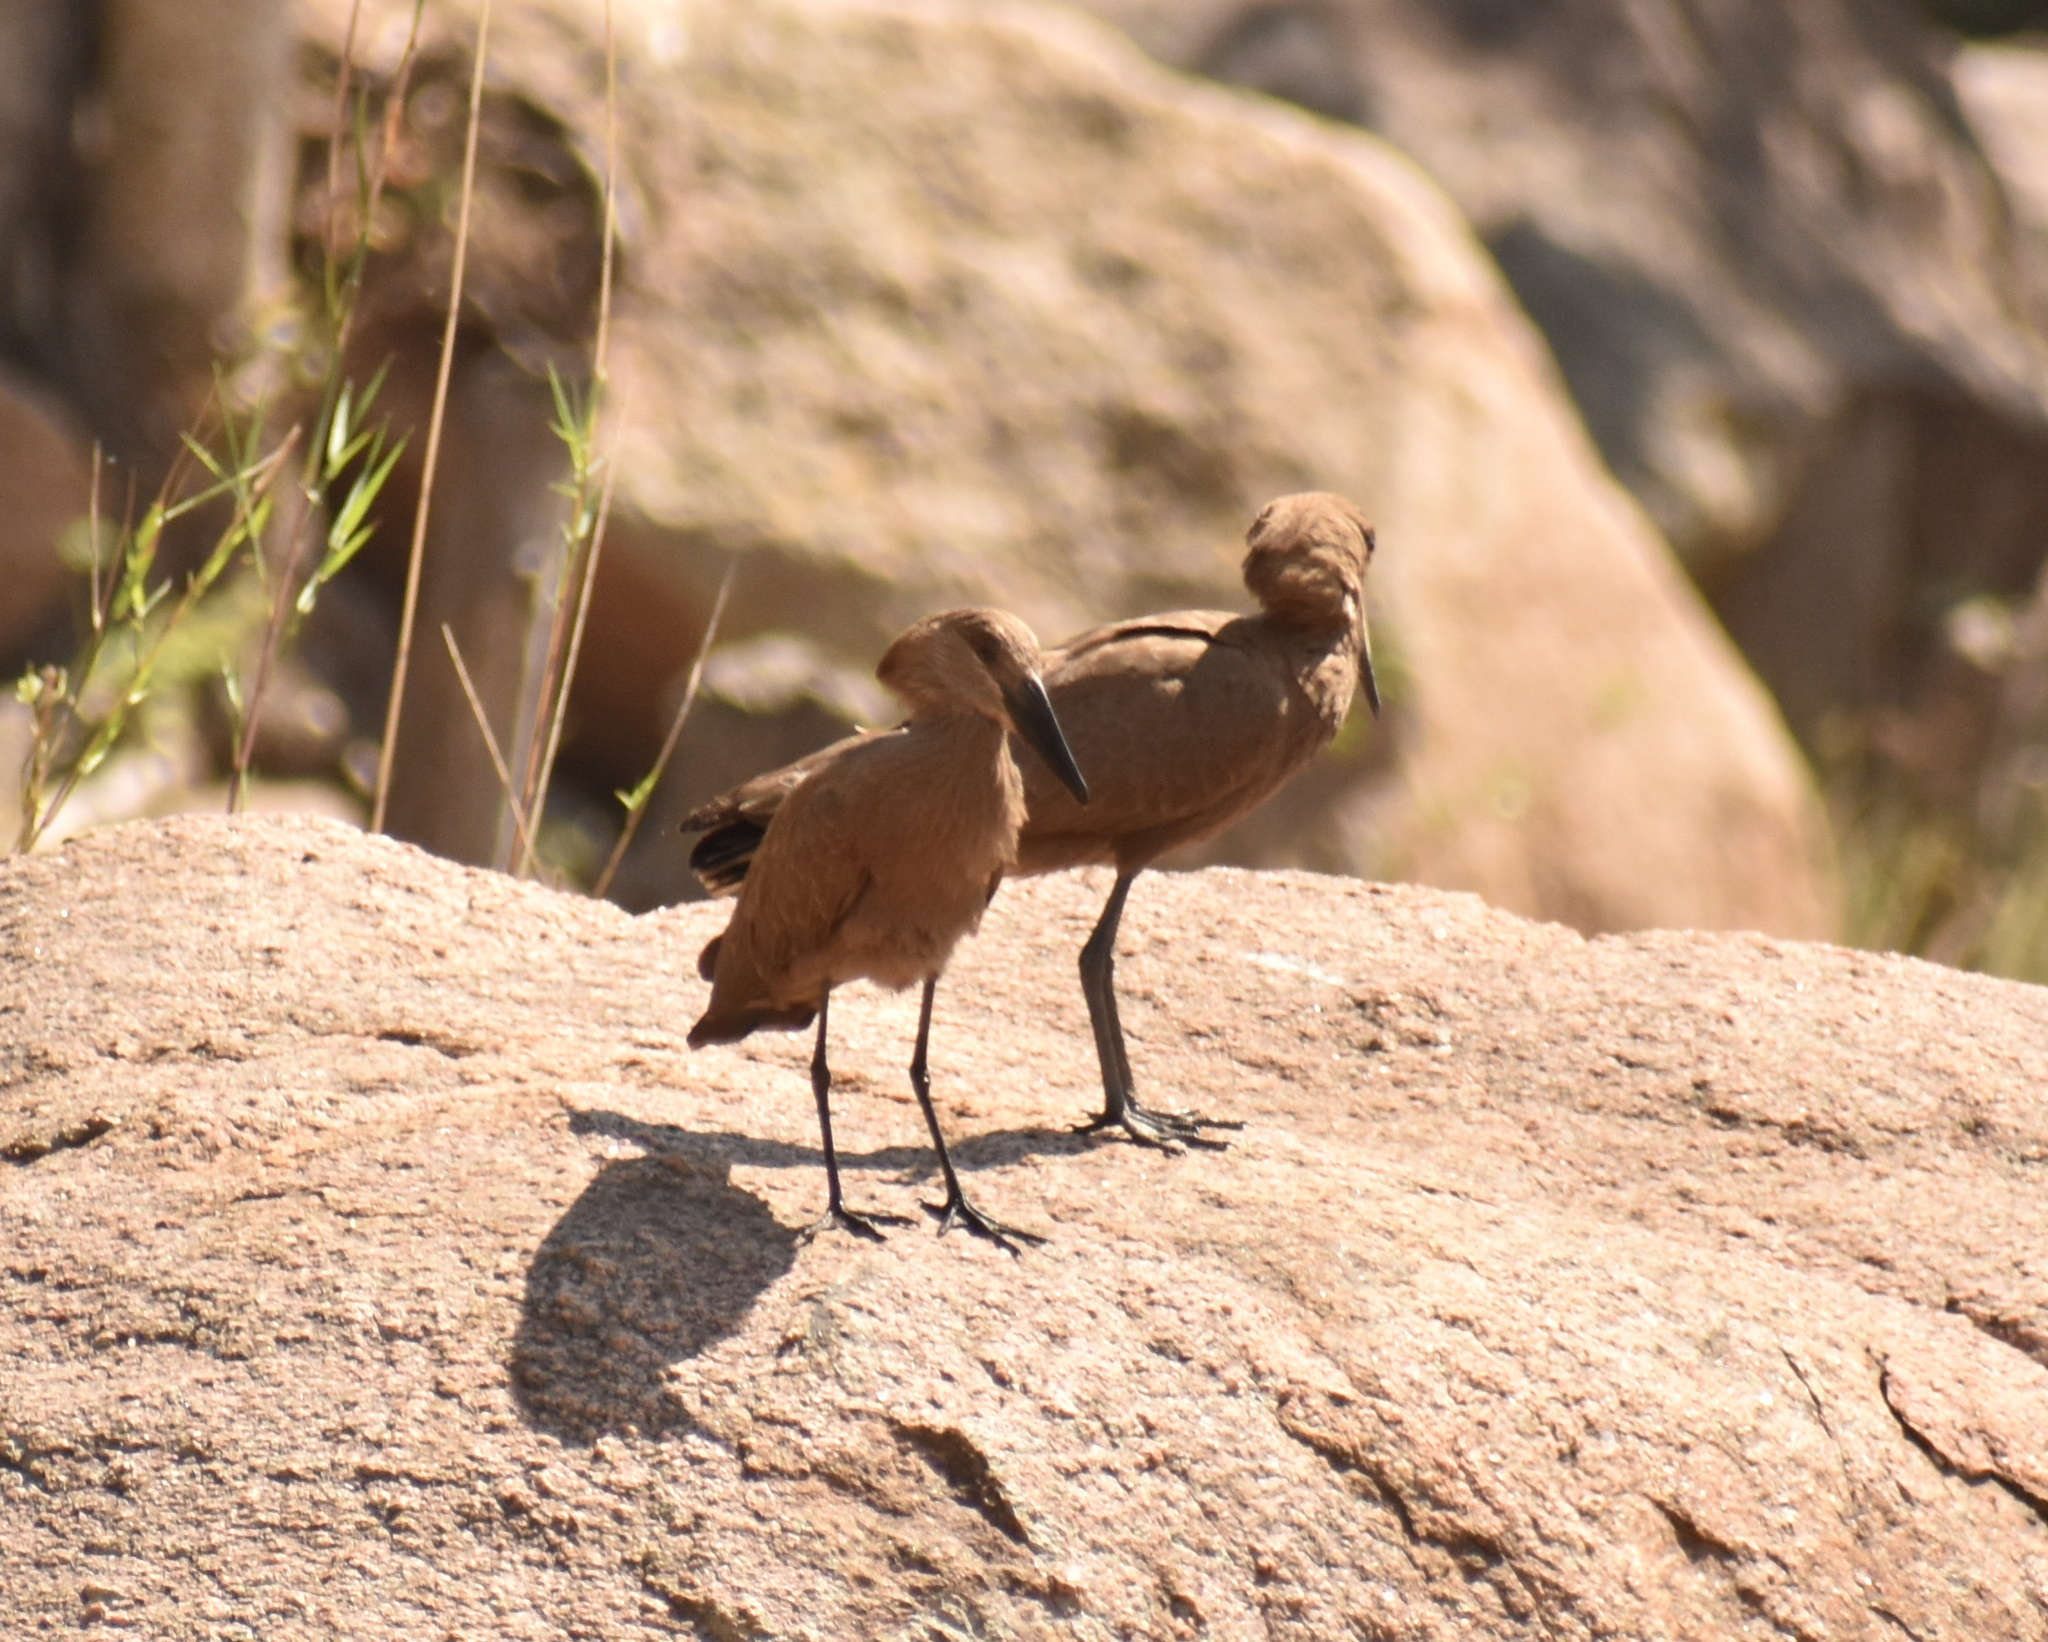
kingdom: Animalia
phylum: Chordata
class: Aves
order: Pelecaniformes
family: Scopidae
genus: Scopus
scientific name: Scopus umbretta
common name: Hamerkop
